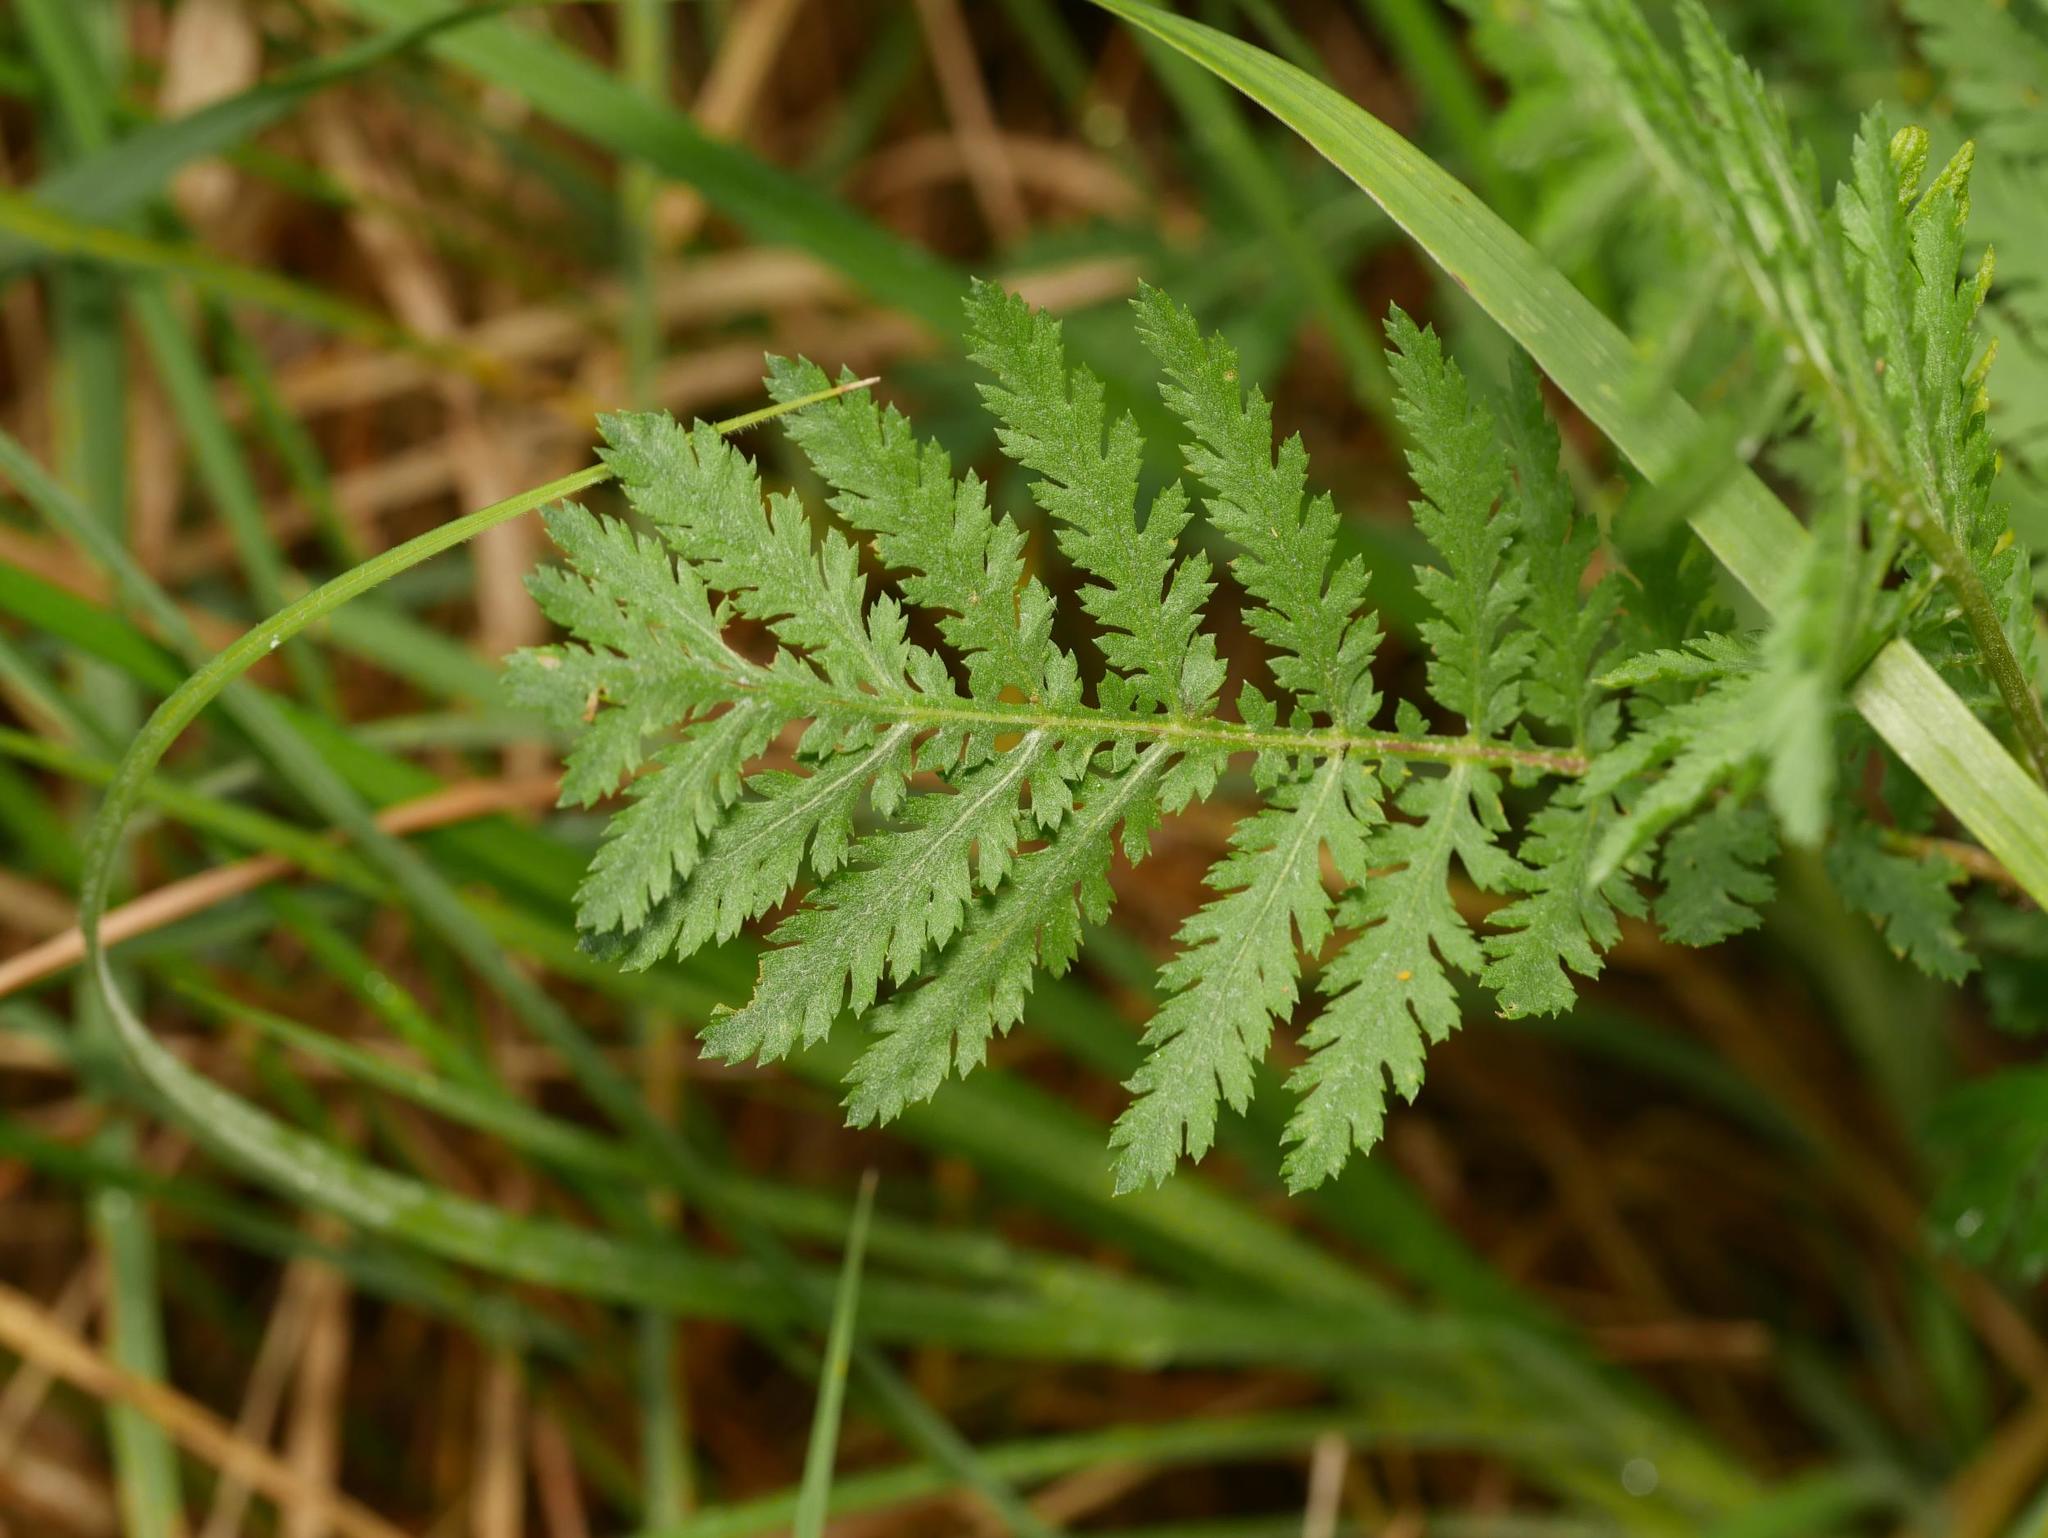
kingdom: Plantae
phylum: Tracheophyta
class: Magnoliopsida
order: Asterales
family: Asteraceae
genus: Tanacetum
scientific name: Tanacetum vulgare
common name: Common tansy
